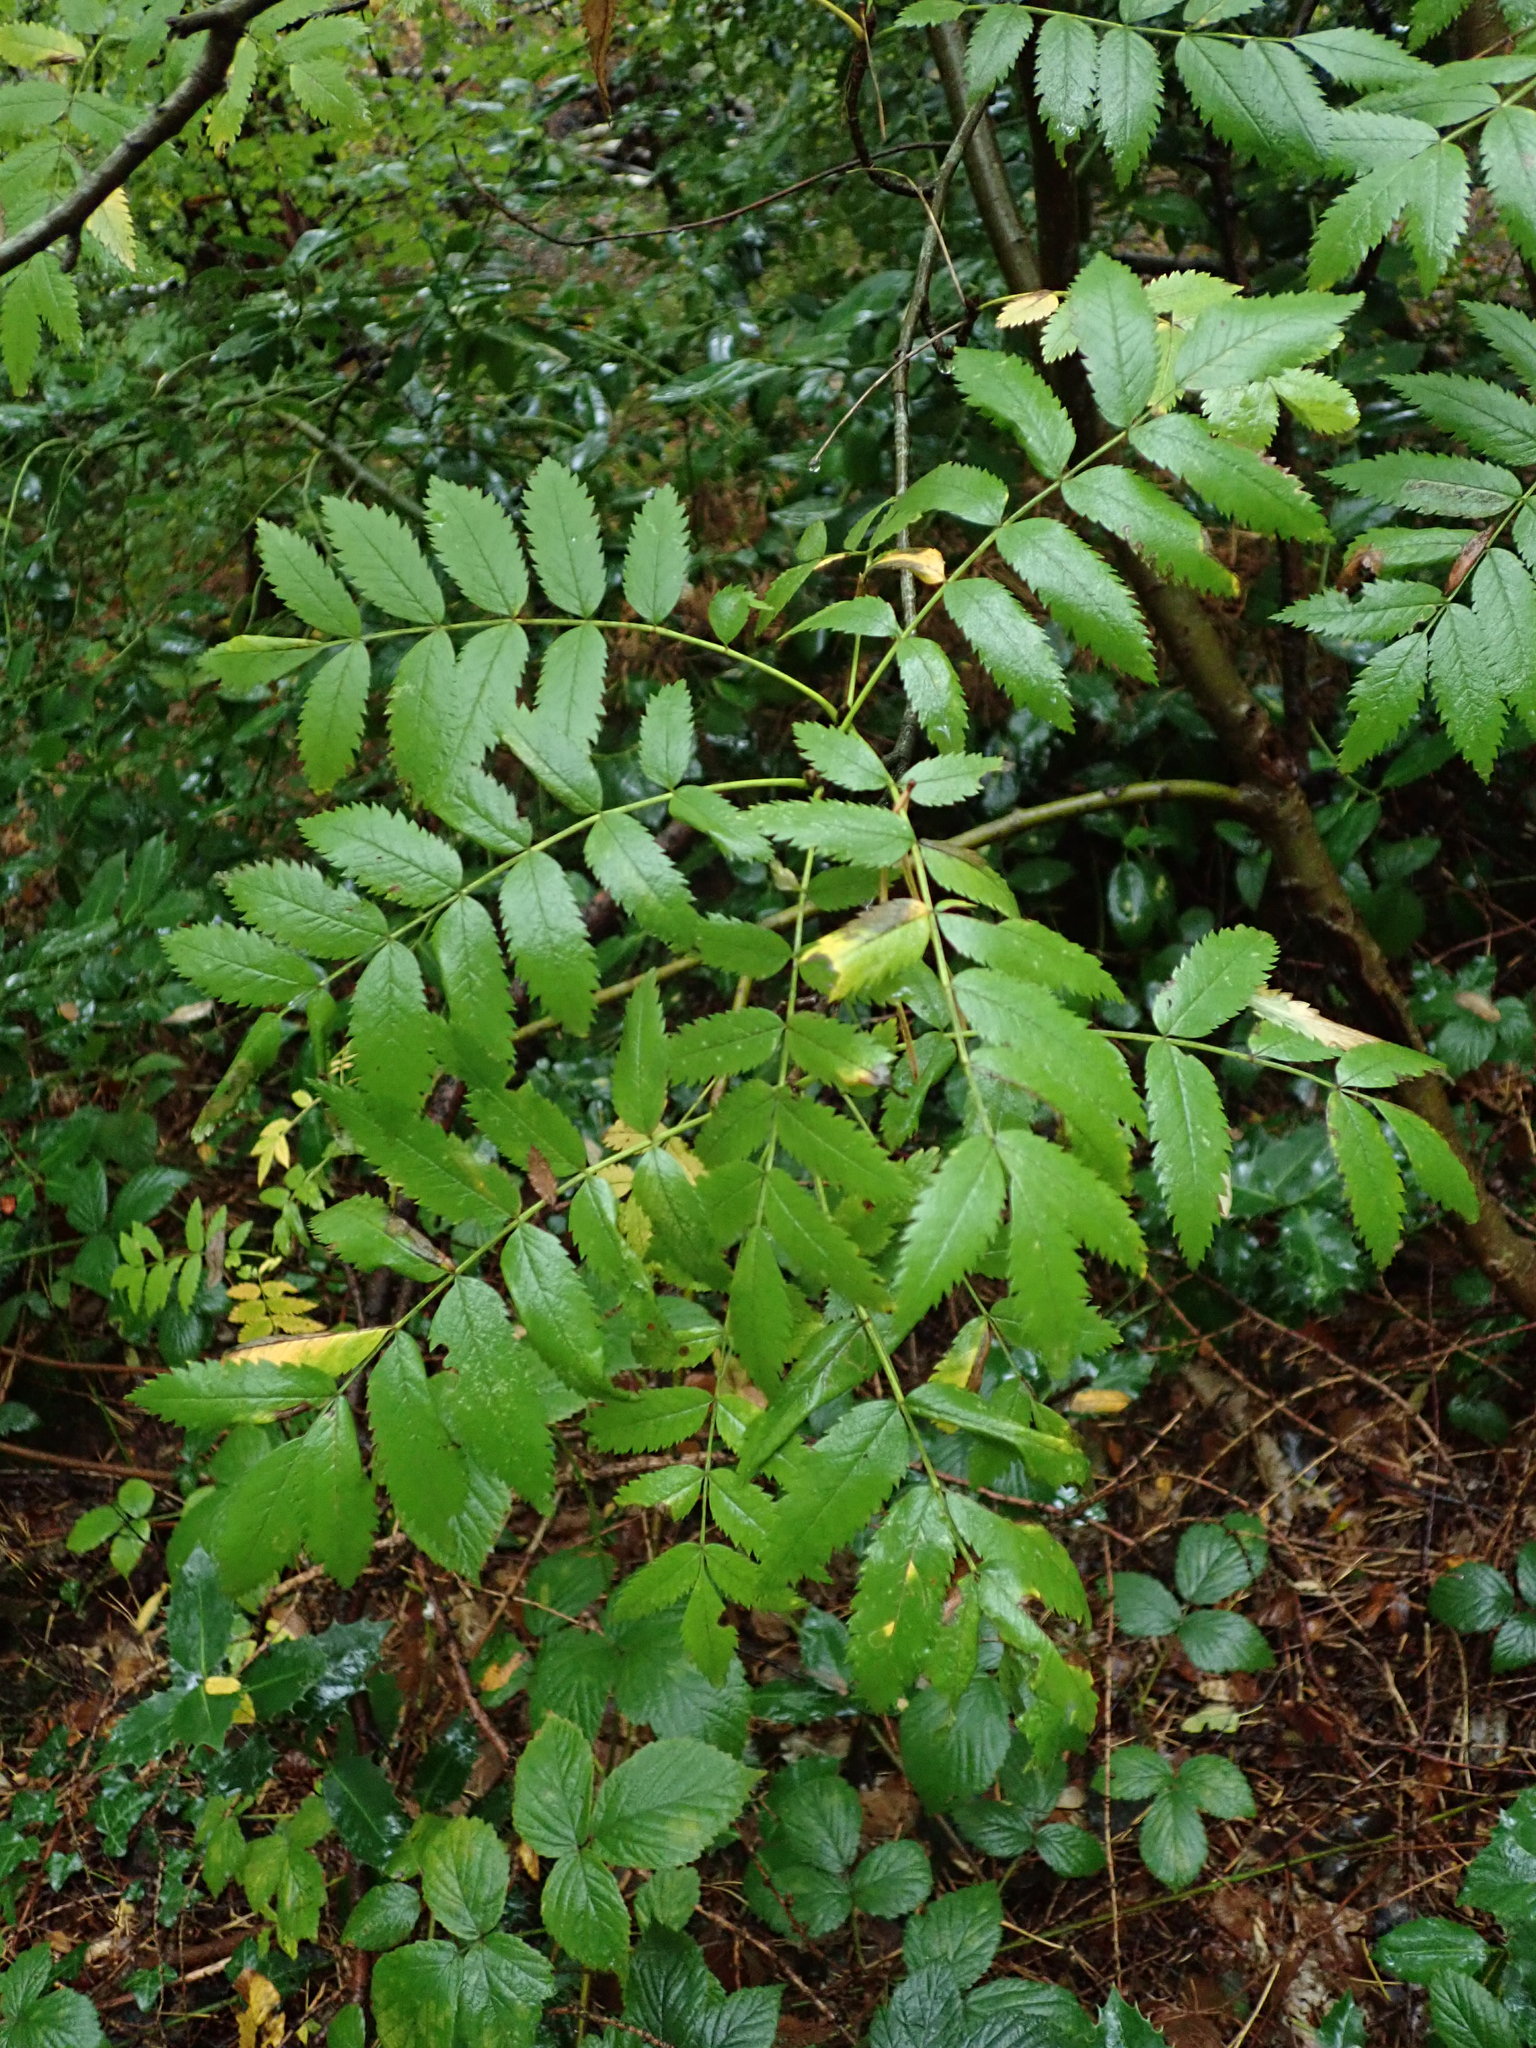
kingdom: Plantae
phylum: Tracheophyta
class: Magnoliopsida
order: Rosales
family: Rosaceae
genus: Sorbus
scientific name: Sorbus aucuparia
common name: Rowan
